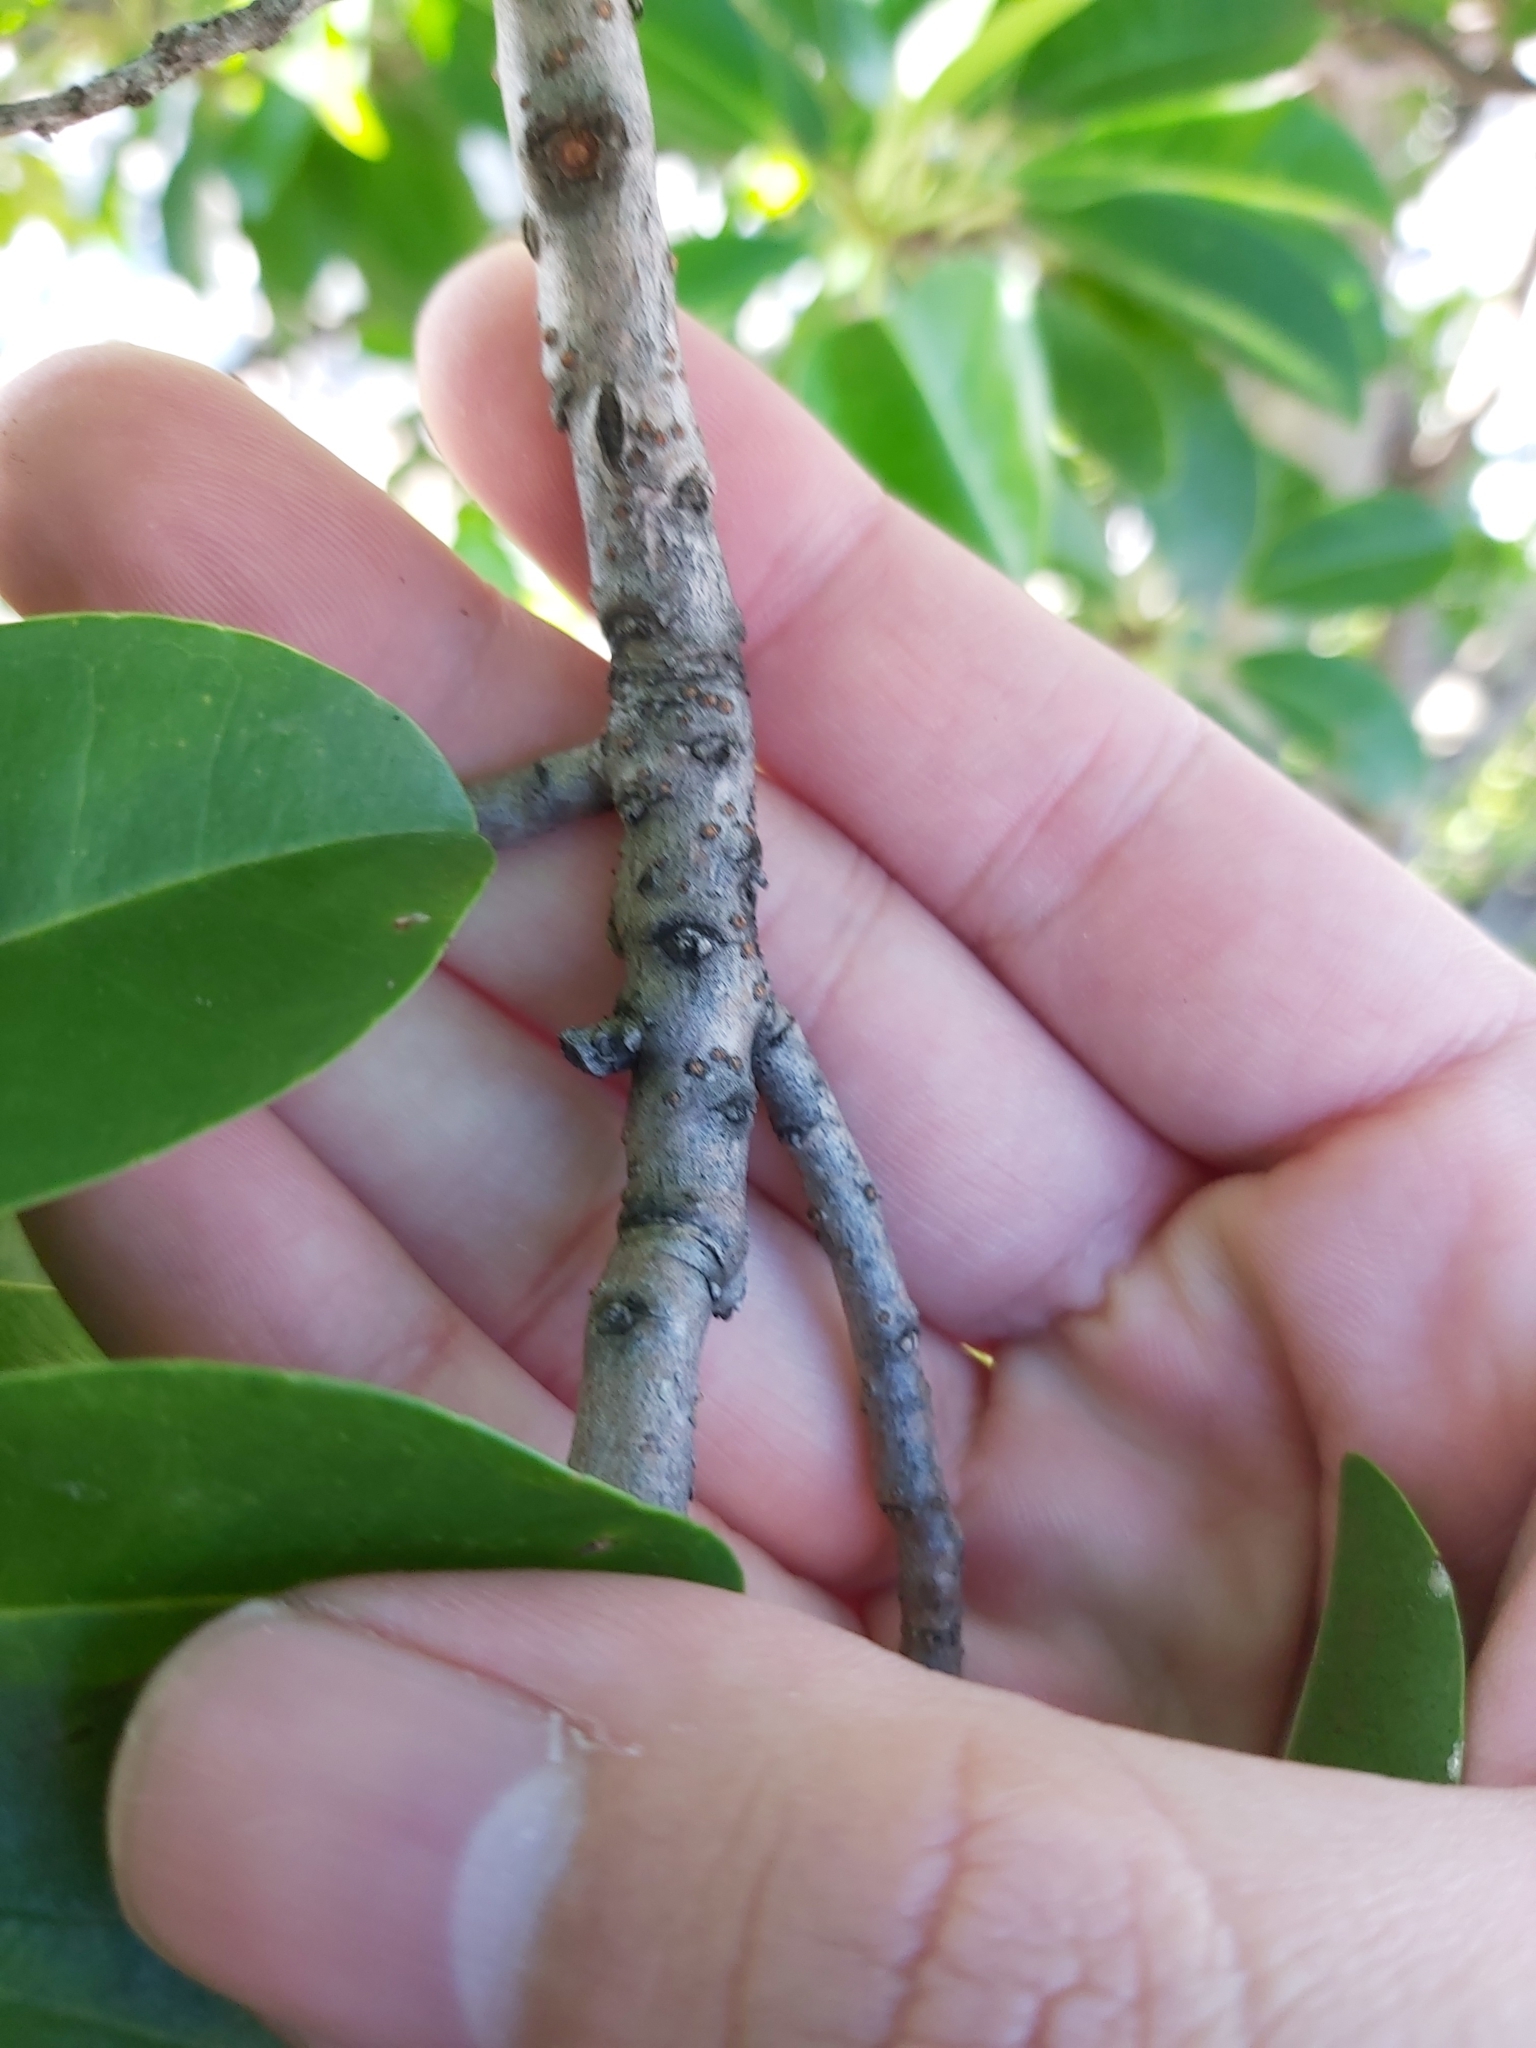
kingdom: Plantae
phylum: Tracheophyta
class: Magnoliopsida
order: Malpighiales
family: Euphorbiaceae
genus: Excoecaria
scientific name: Excoecaria agallocha
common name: River poisontree
